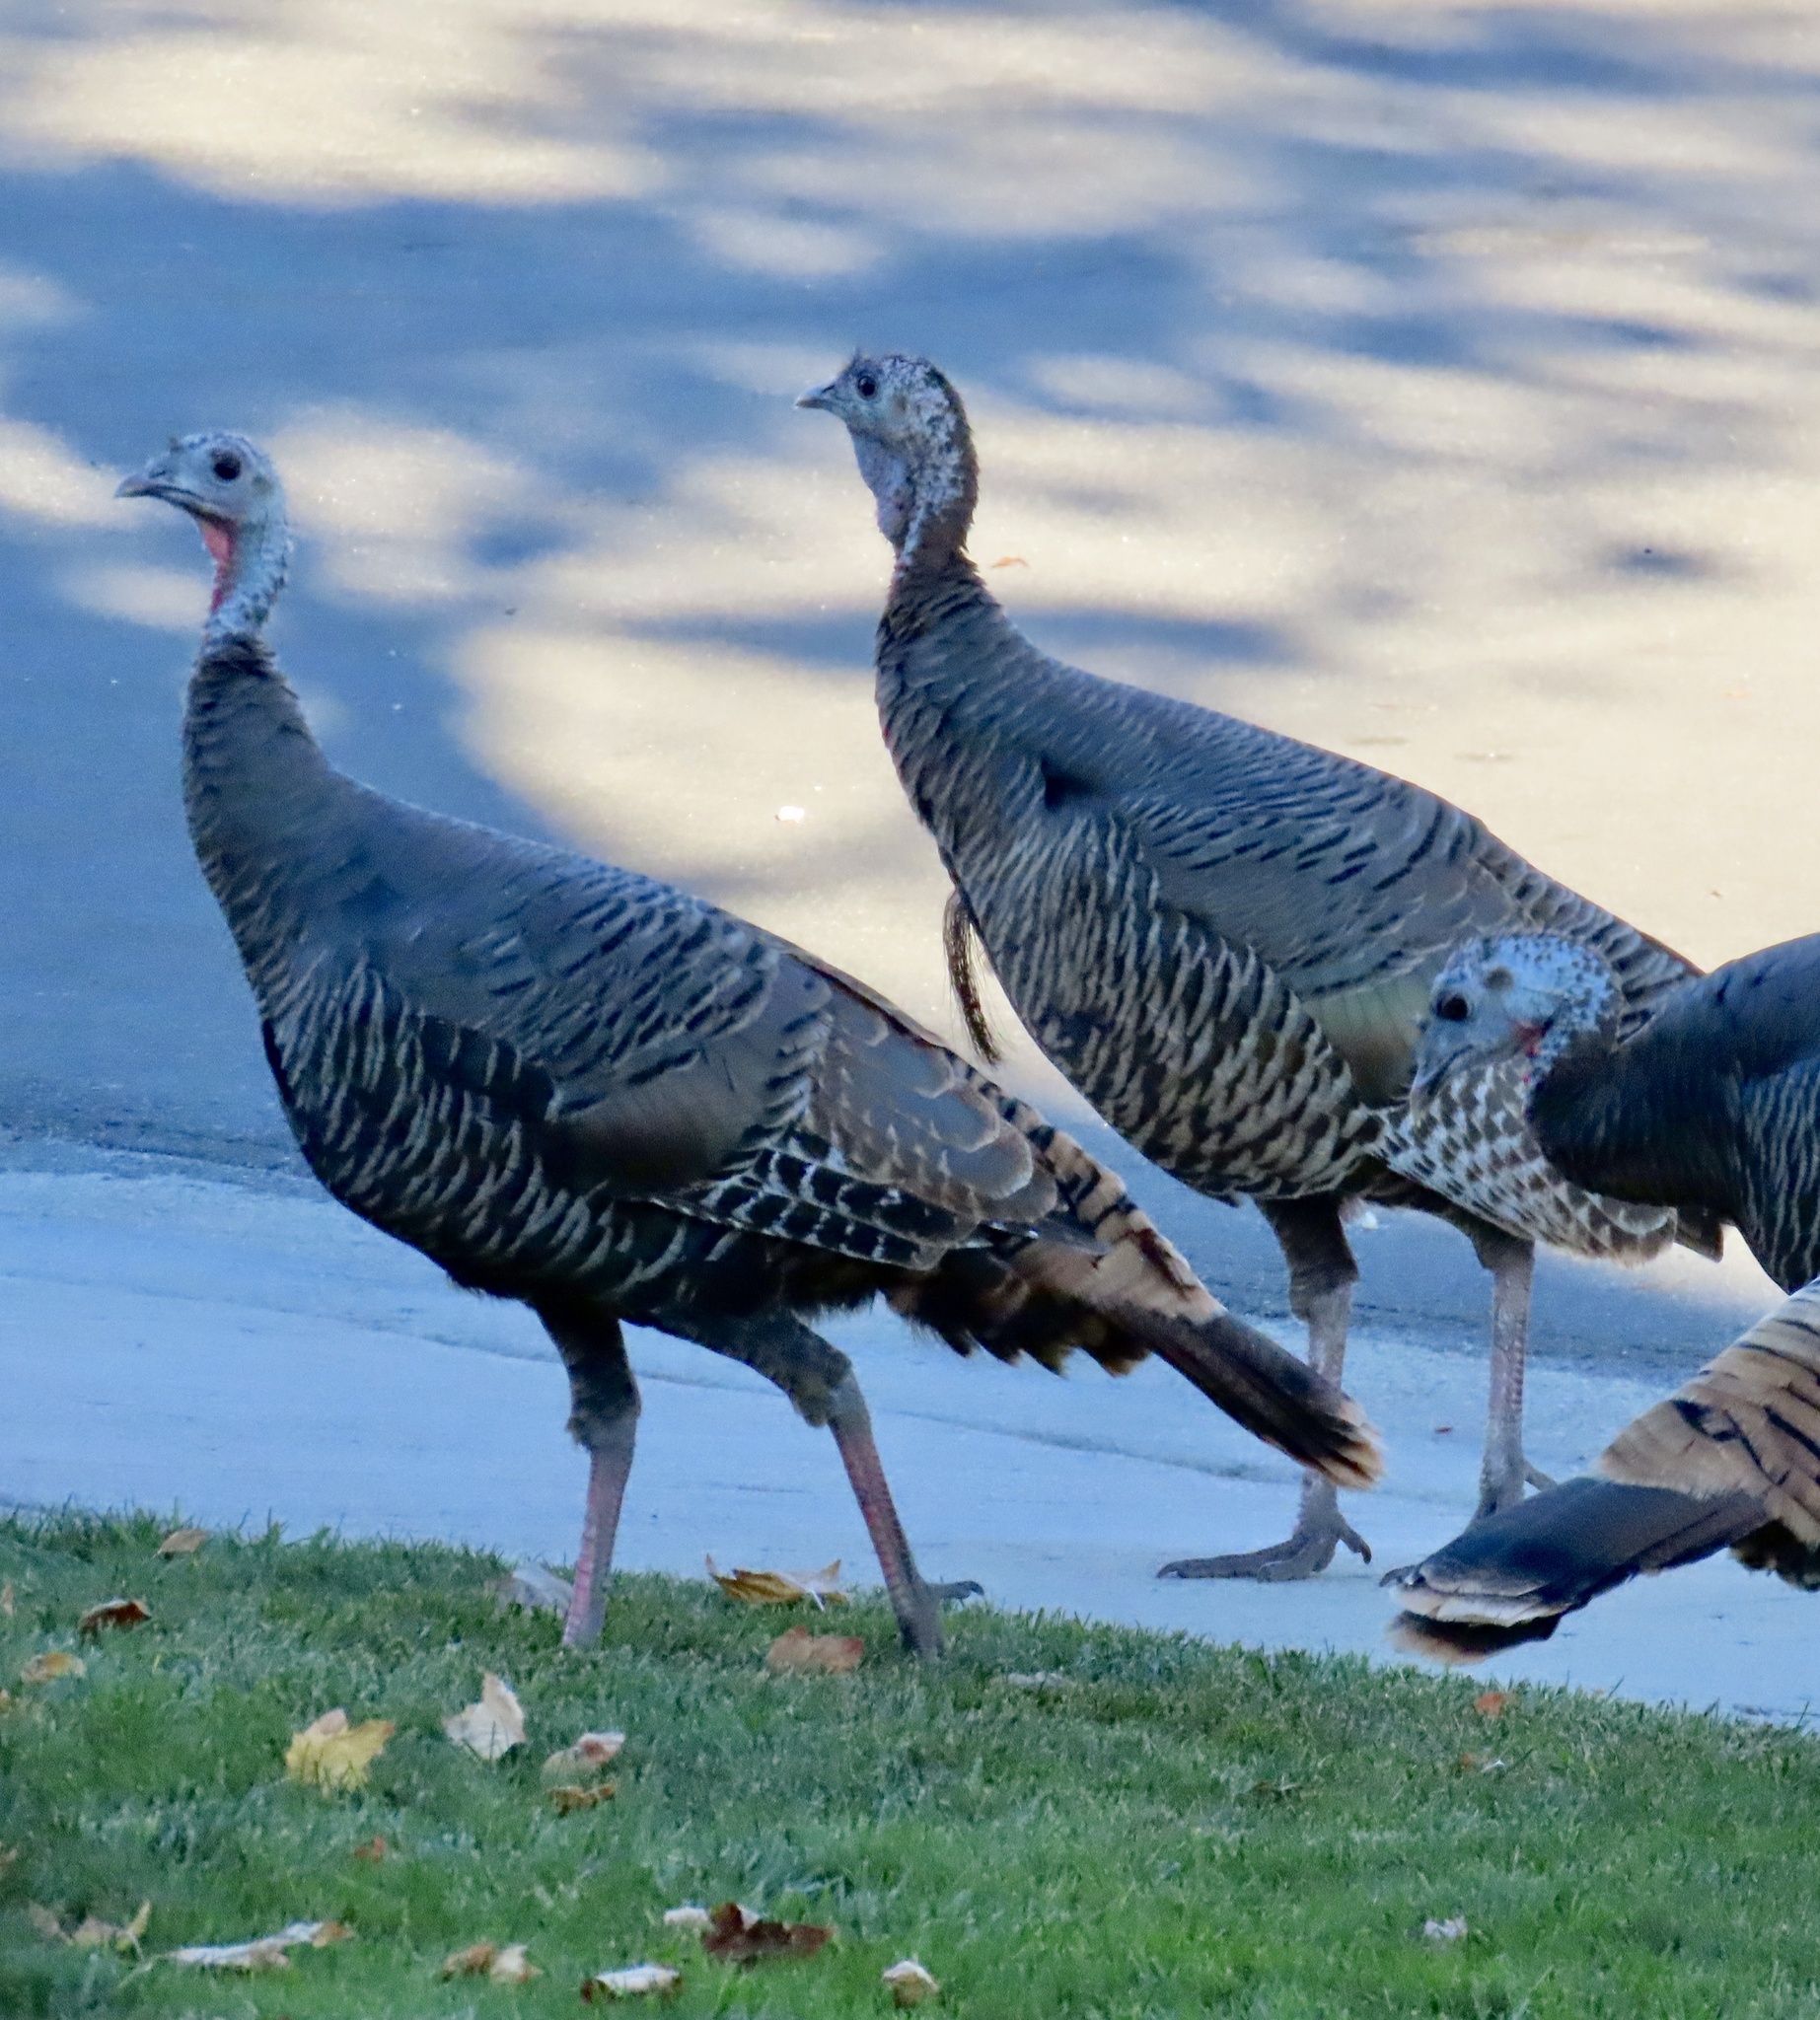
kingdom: Animalia
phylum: Chordata
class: Aves
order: Galliformes
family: Phasianidae
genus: Meleagris
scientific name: Meleagris gallopavo
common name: Wild turkey
